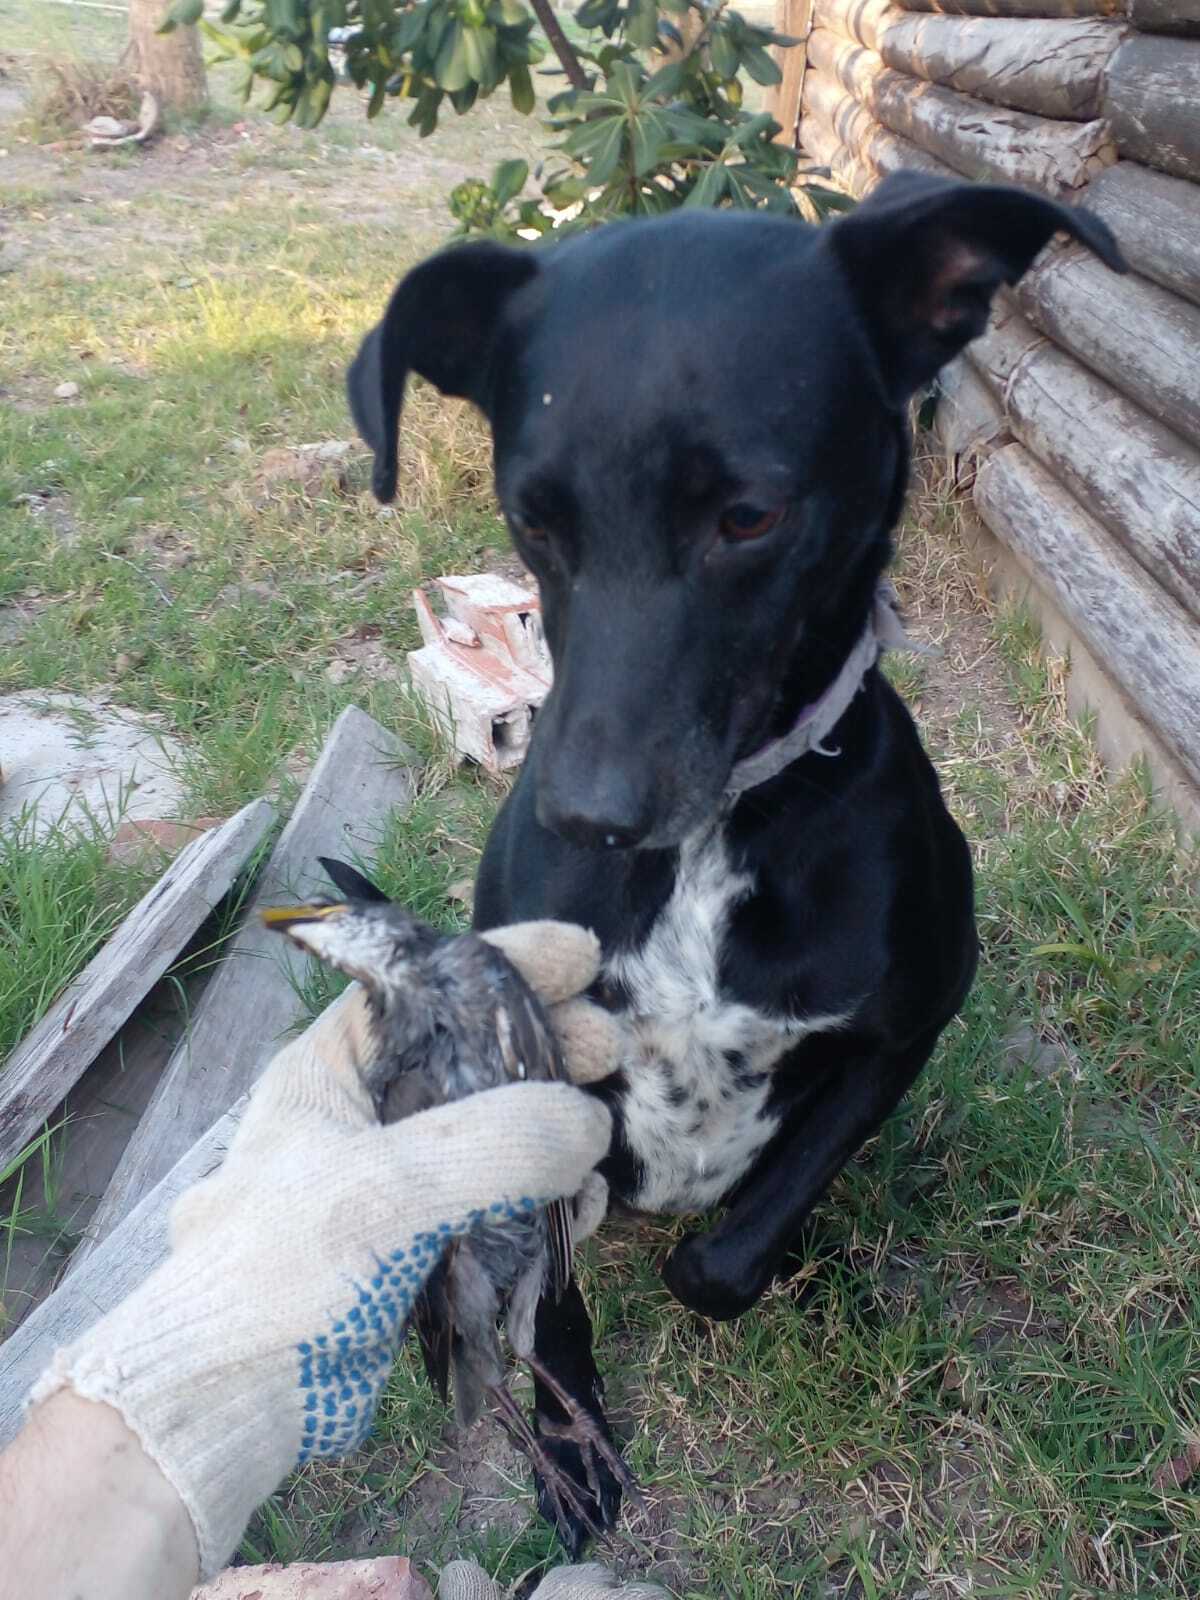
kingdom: Animalia
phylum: Chordata
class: Aves
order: Passeriformes
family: Sturnidae
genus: Sturnus
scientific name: Sturnus vulgaris
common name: Common starling
